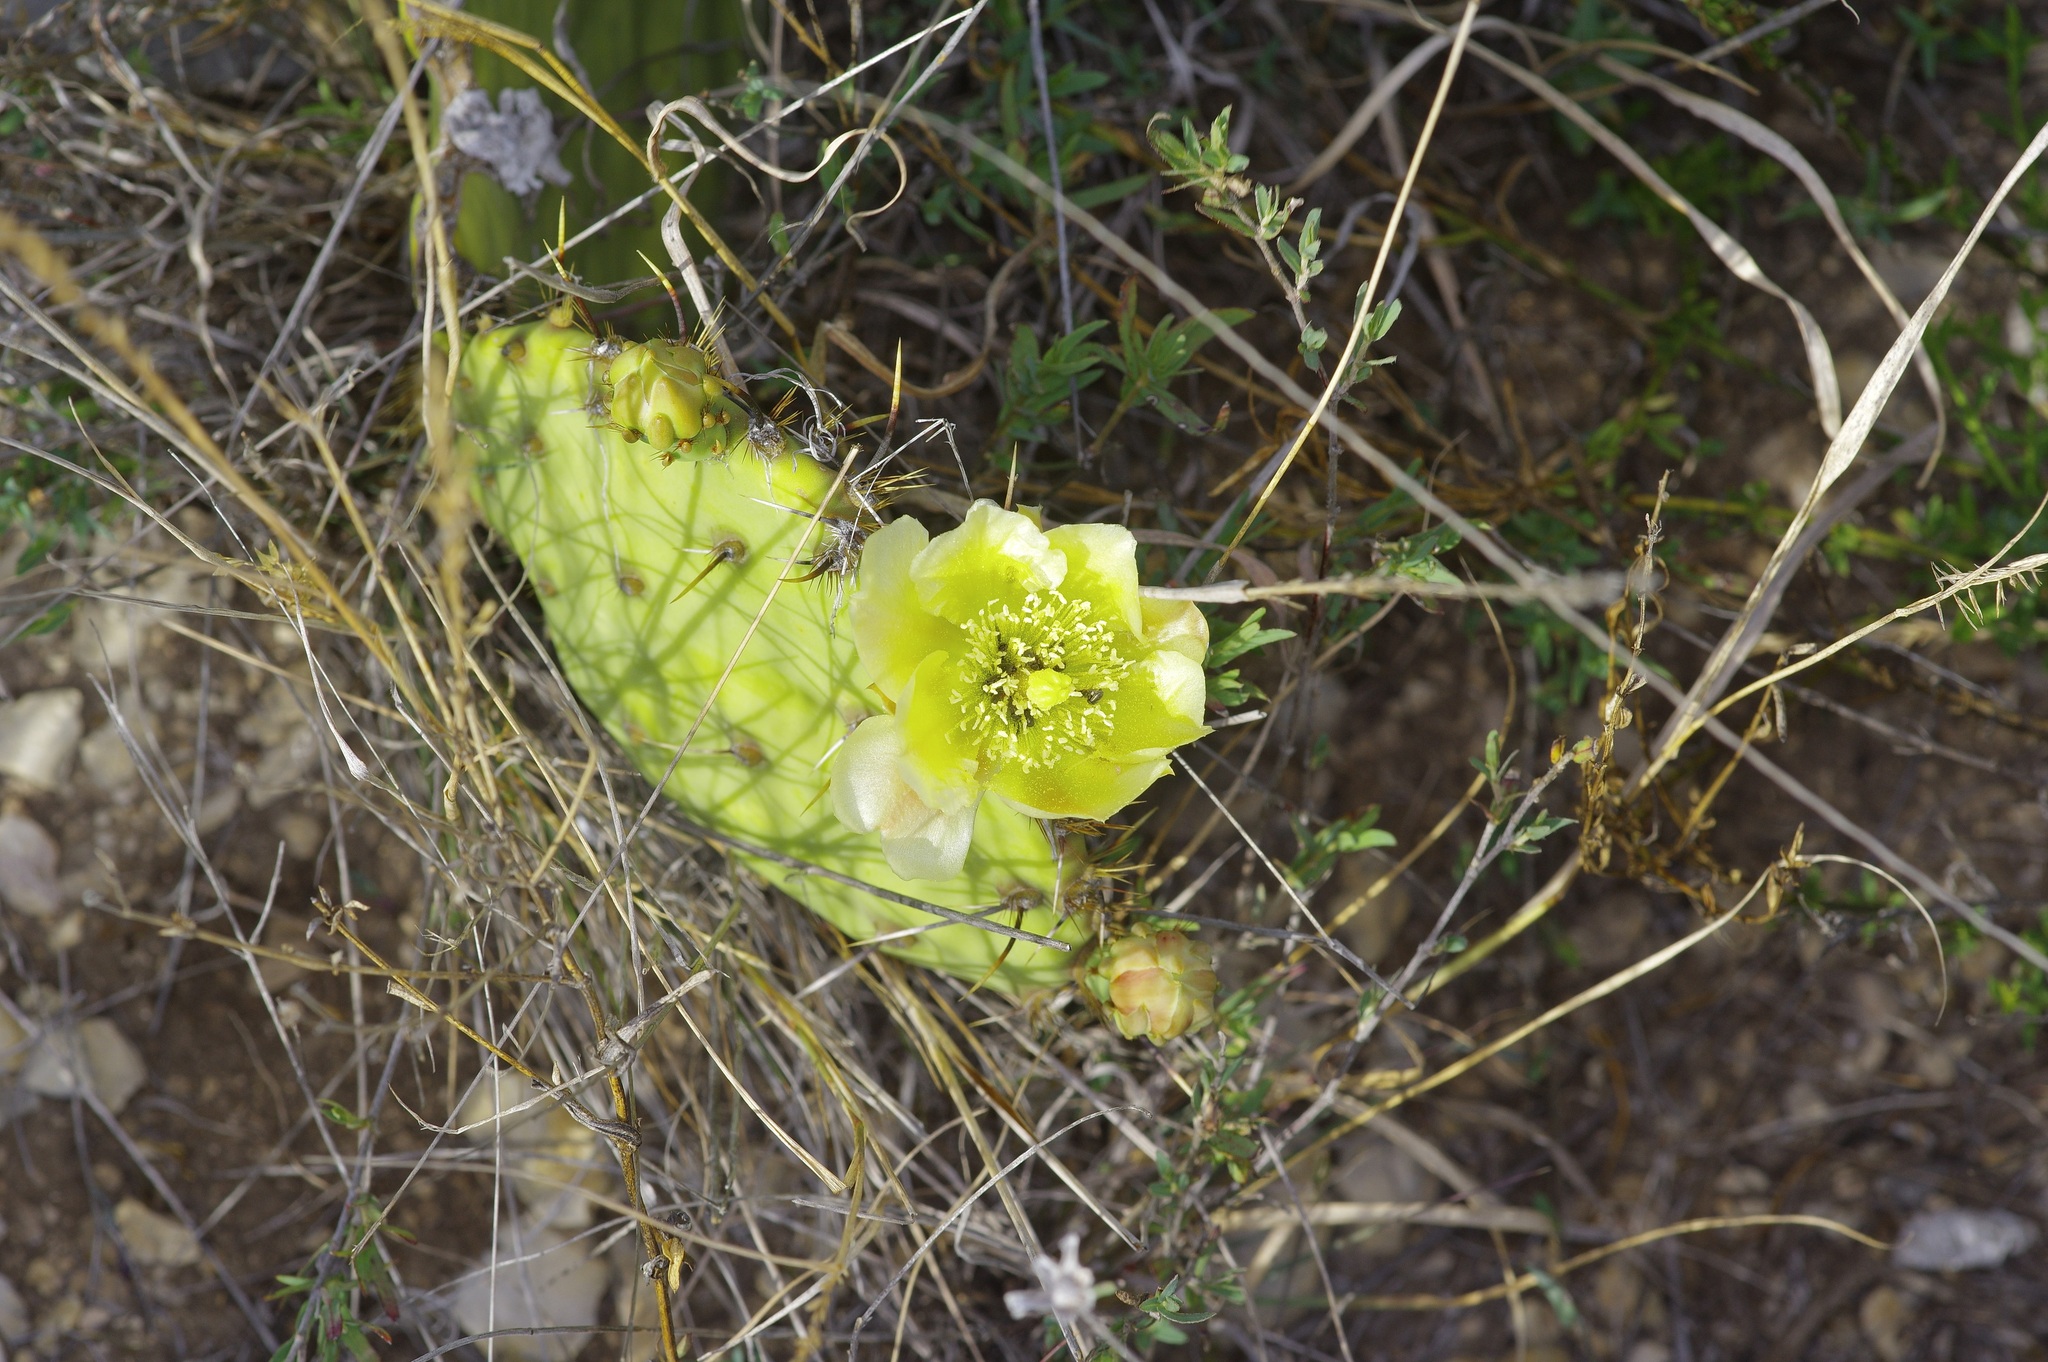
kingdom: Plantae
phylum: Tracheophyta
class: Magnoliopsida
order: Caryophyllales
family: Cactaceae
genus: Opuntia
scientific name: Opuntia atrispina
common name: Border prickly-pear
